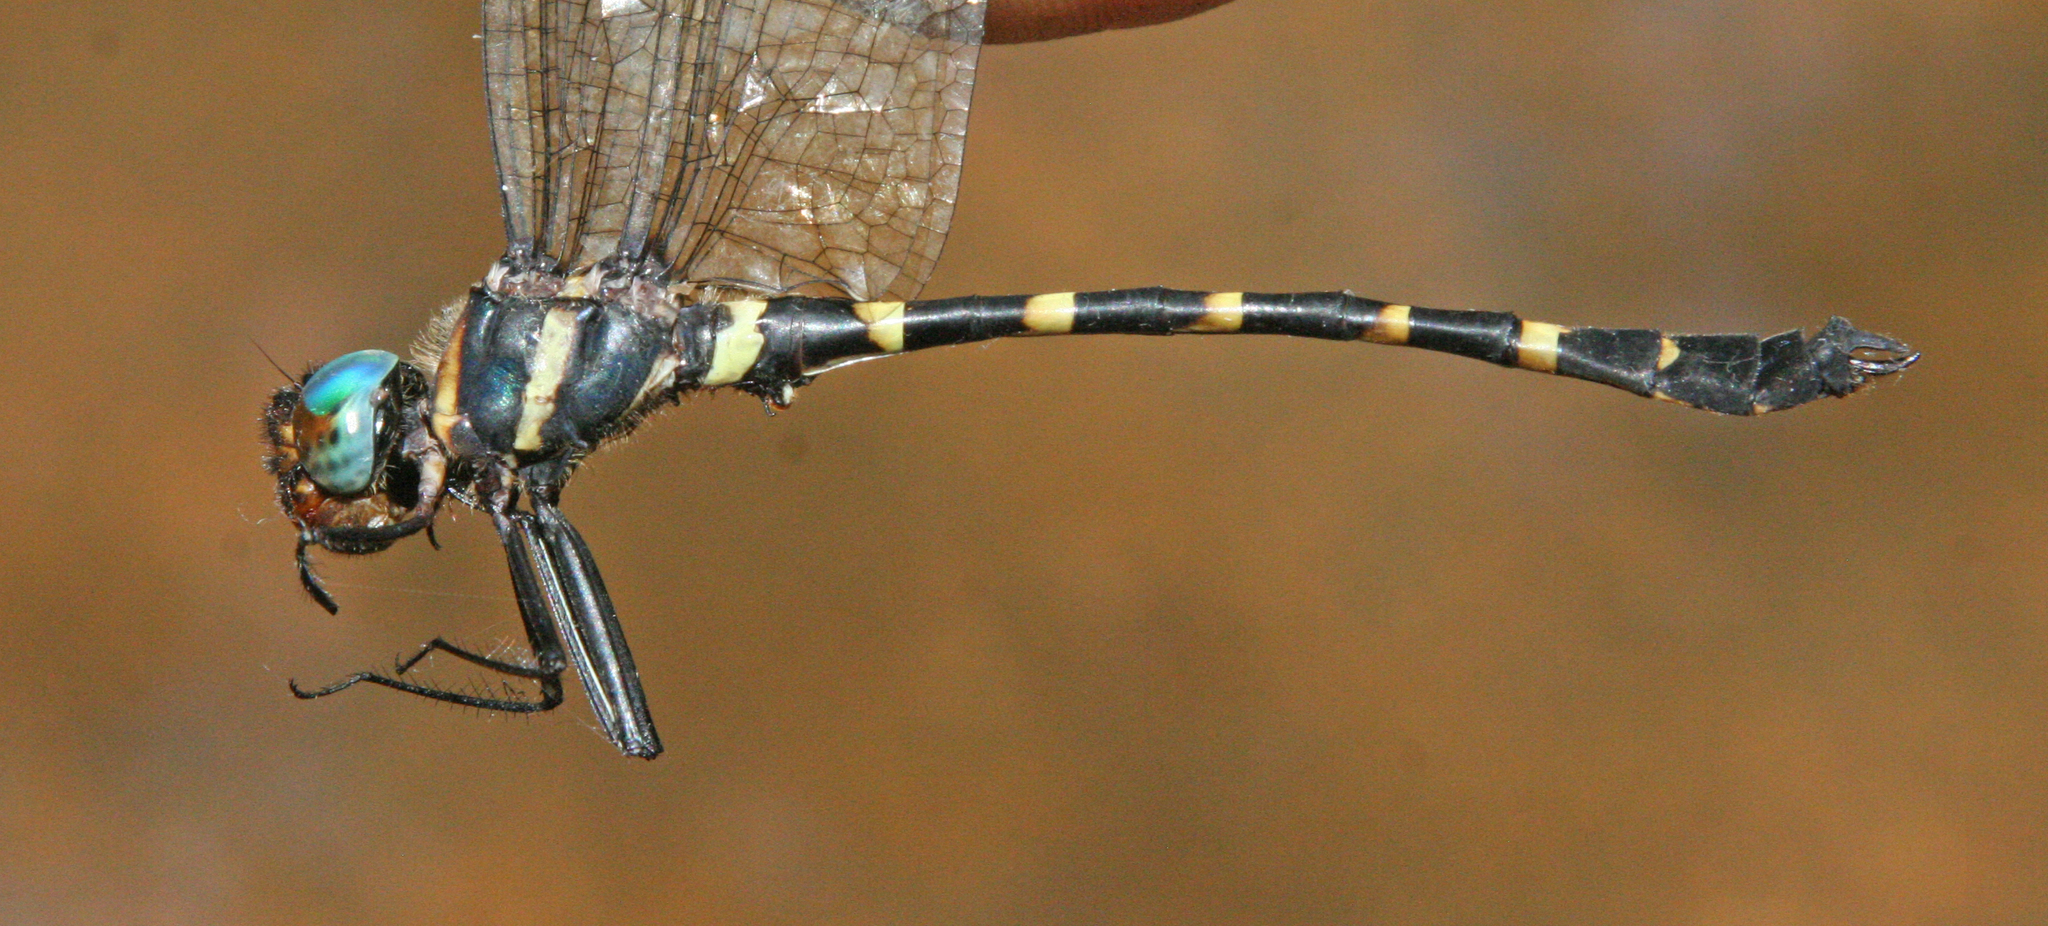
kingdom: Animalia
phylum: Arthropoda
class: Insecta
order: Odonata
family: Macromiidae
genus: Macromia
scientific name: Macromia aculeata
